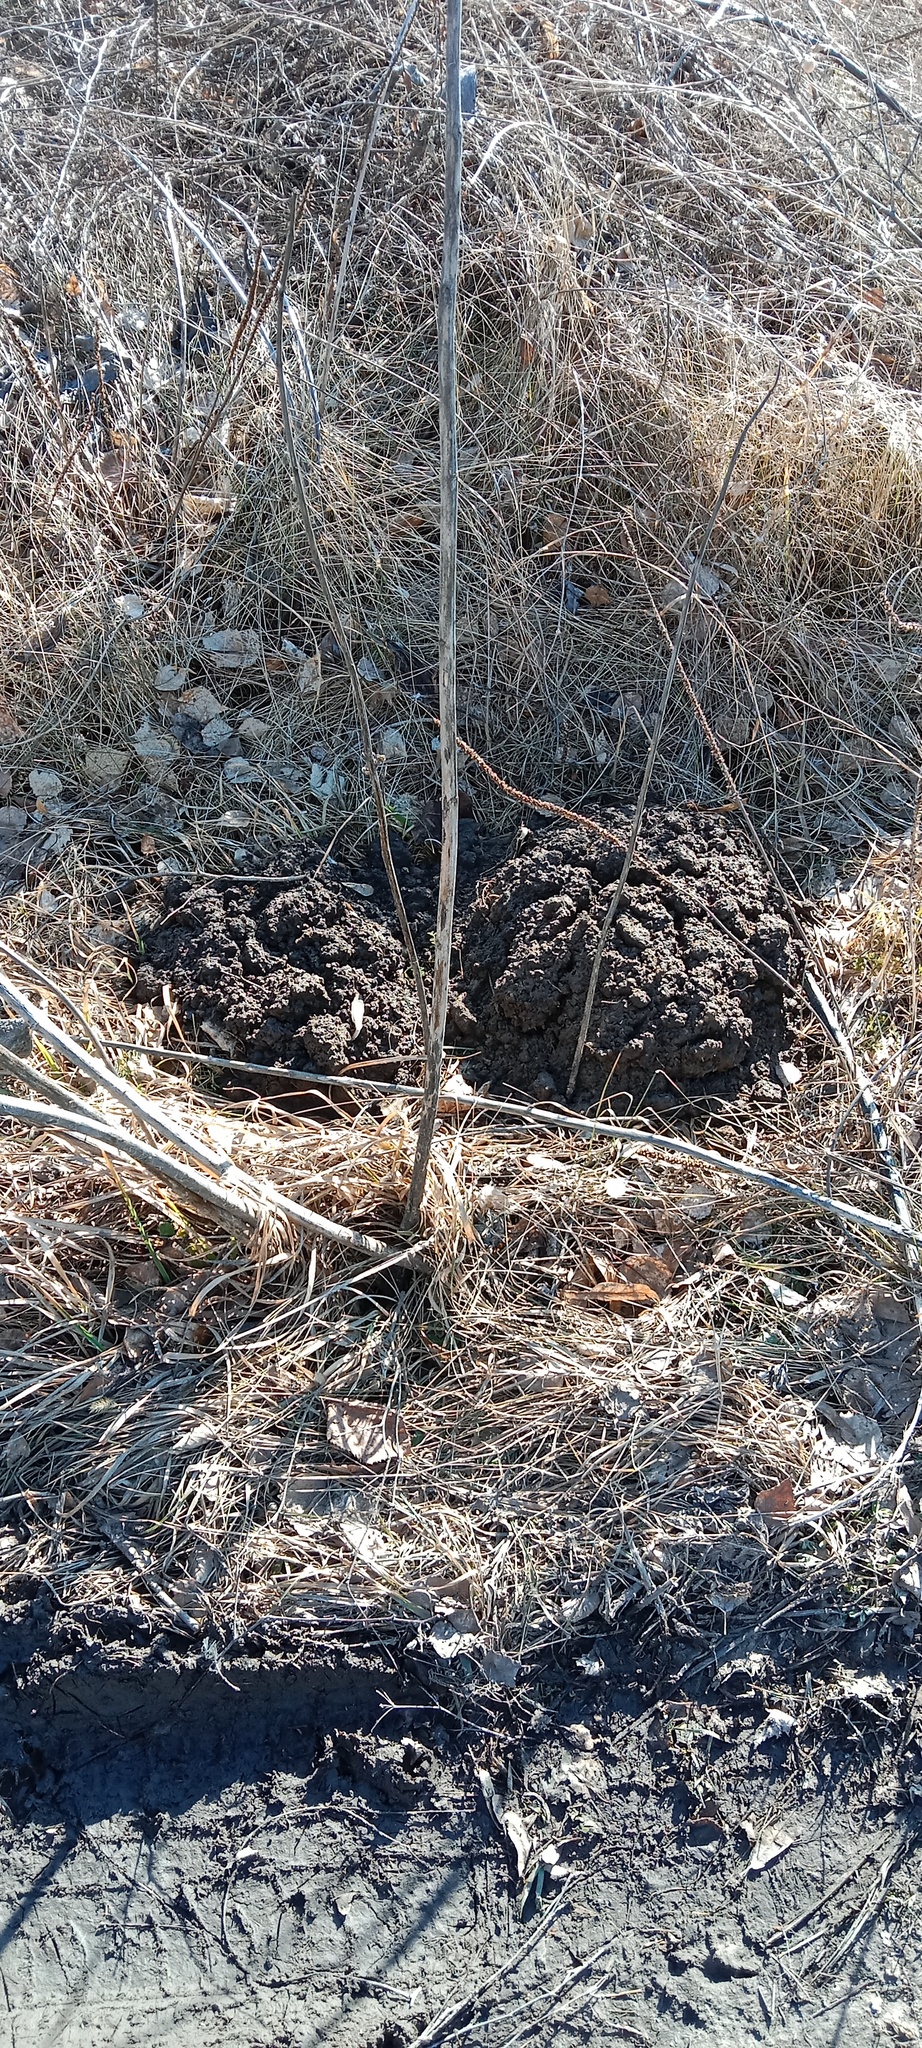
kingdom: Animalia
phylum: Chordata
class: Mammalia
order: Soricomorpha
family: Talpidae
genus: Talpa
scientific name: Talpa europaea
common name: European mole
